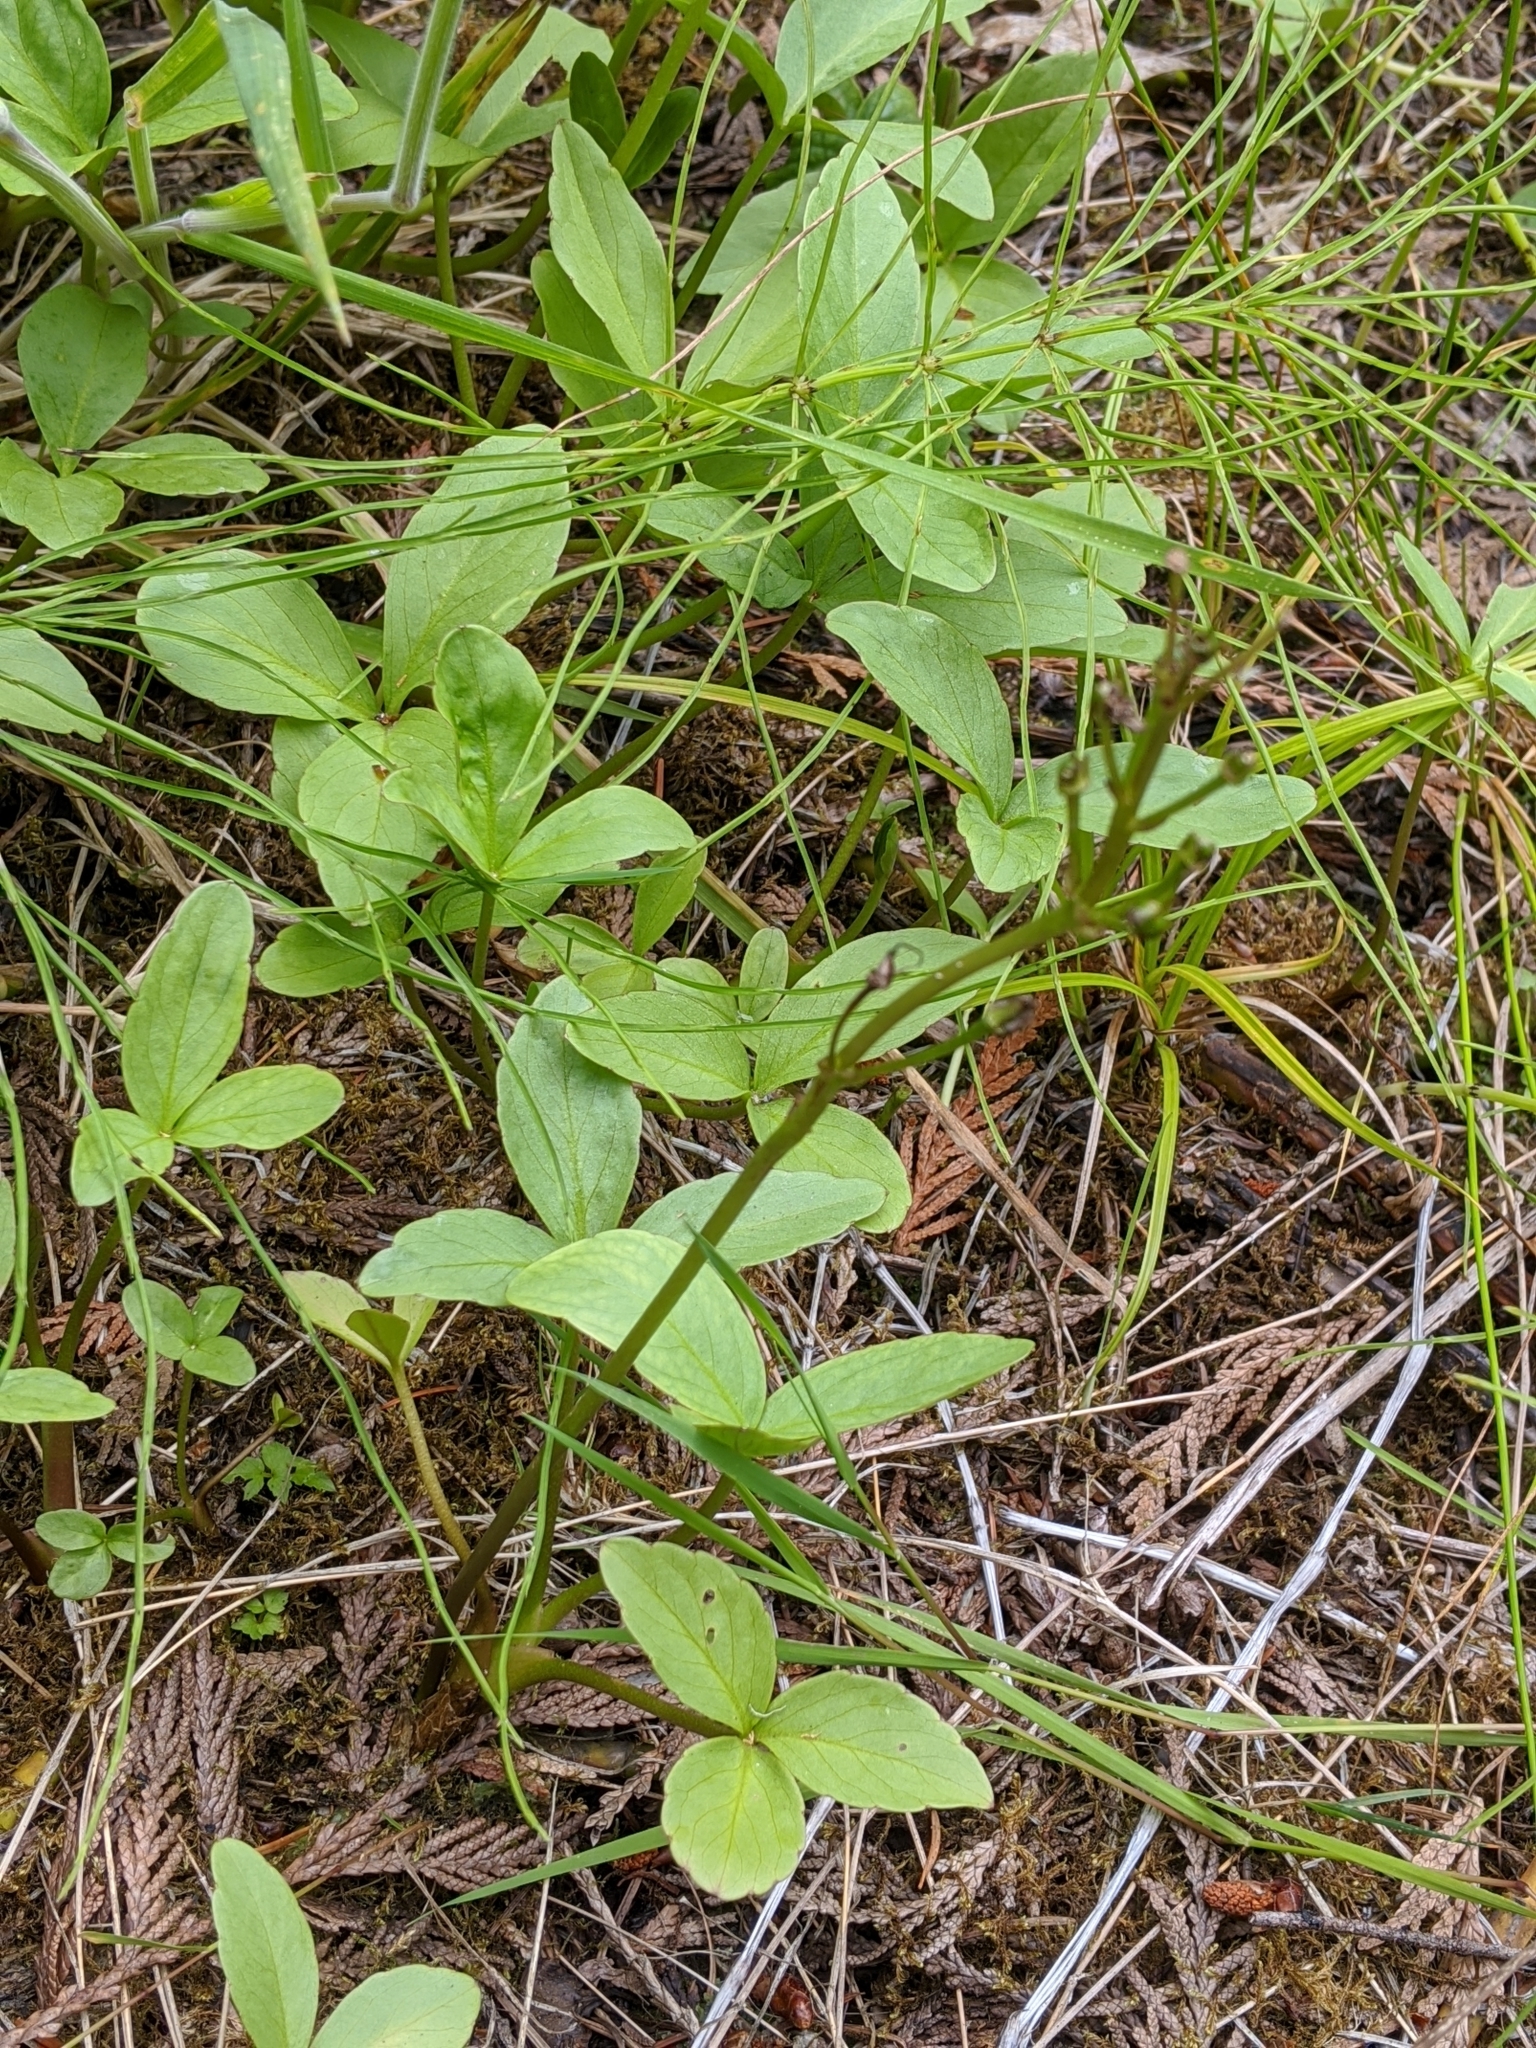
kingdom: Plantae
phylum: Tracheophyta
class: Magnoliopsida
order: Asterales
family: Menyanthaceae
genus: Menyanthes
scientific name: Menyanthes trifoliata
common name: Bogbean
